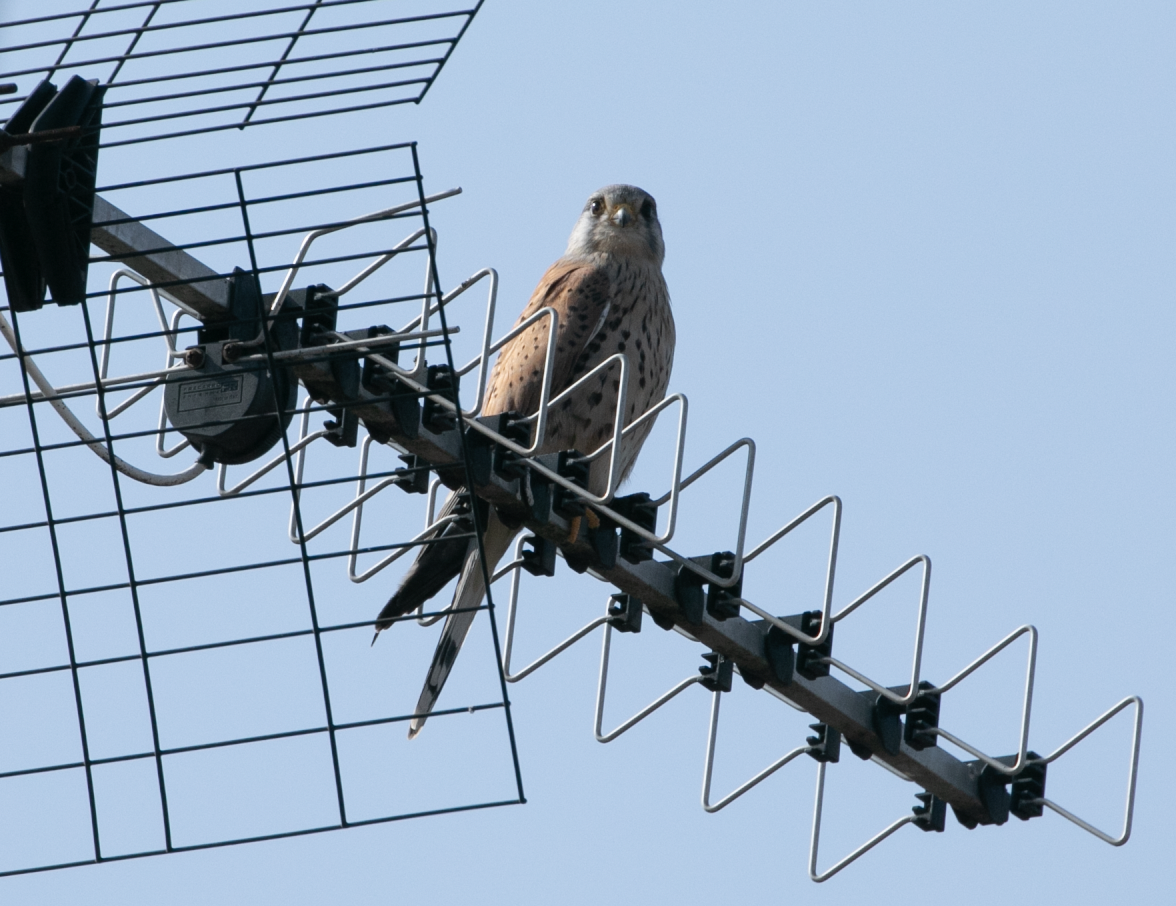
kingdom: Animalia
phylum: Chordata
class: Aves
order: Falconiformes
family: Falconidae
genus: Falco
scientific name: Falco tinnunculus
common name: Common kestrel
